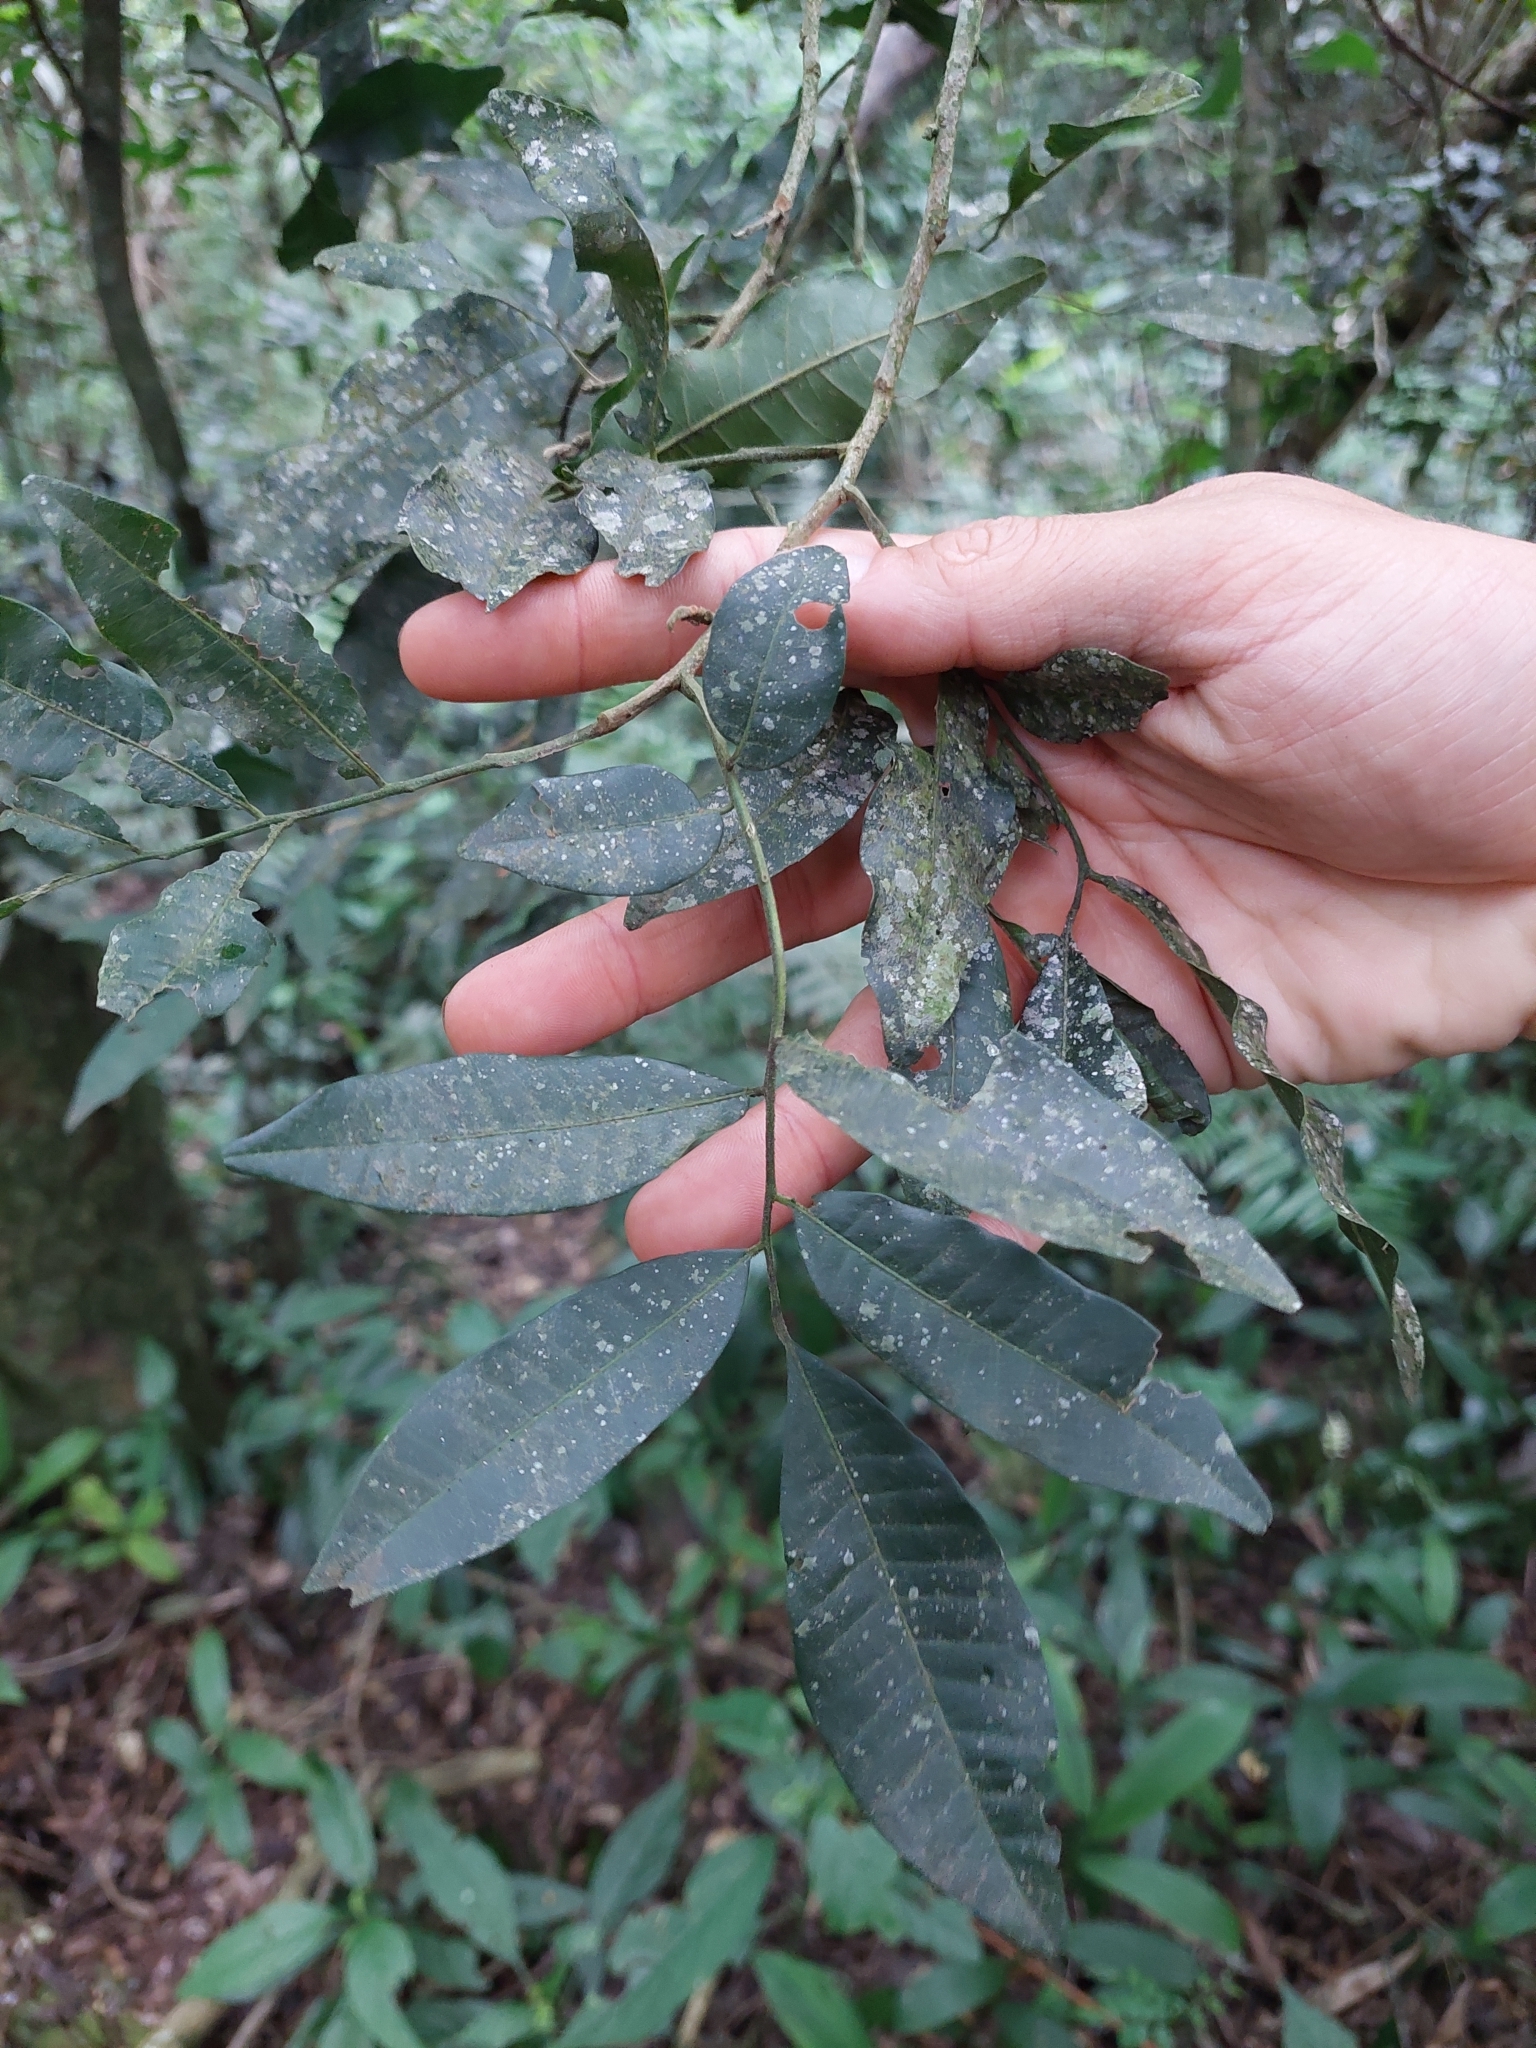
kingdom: Plantae
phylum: Tracheophyta
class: Magnoliopsida
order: Sapindales
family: Meliaceae
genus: Trichilia
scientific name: Trichilia catigua
